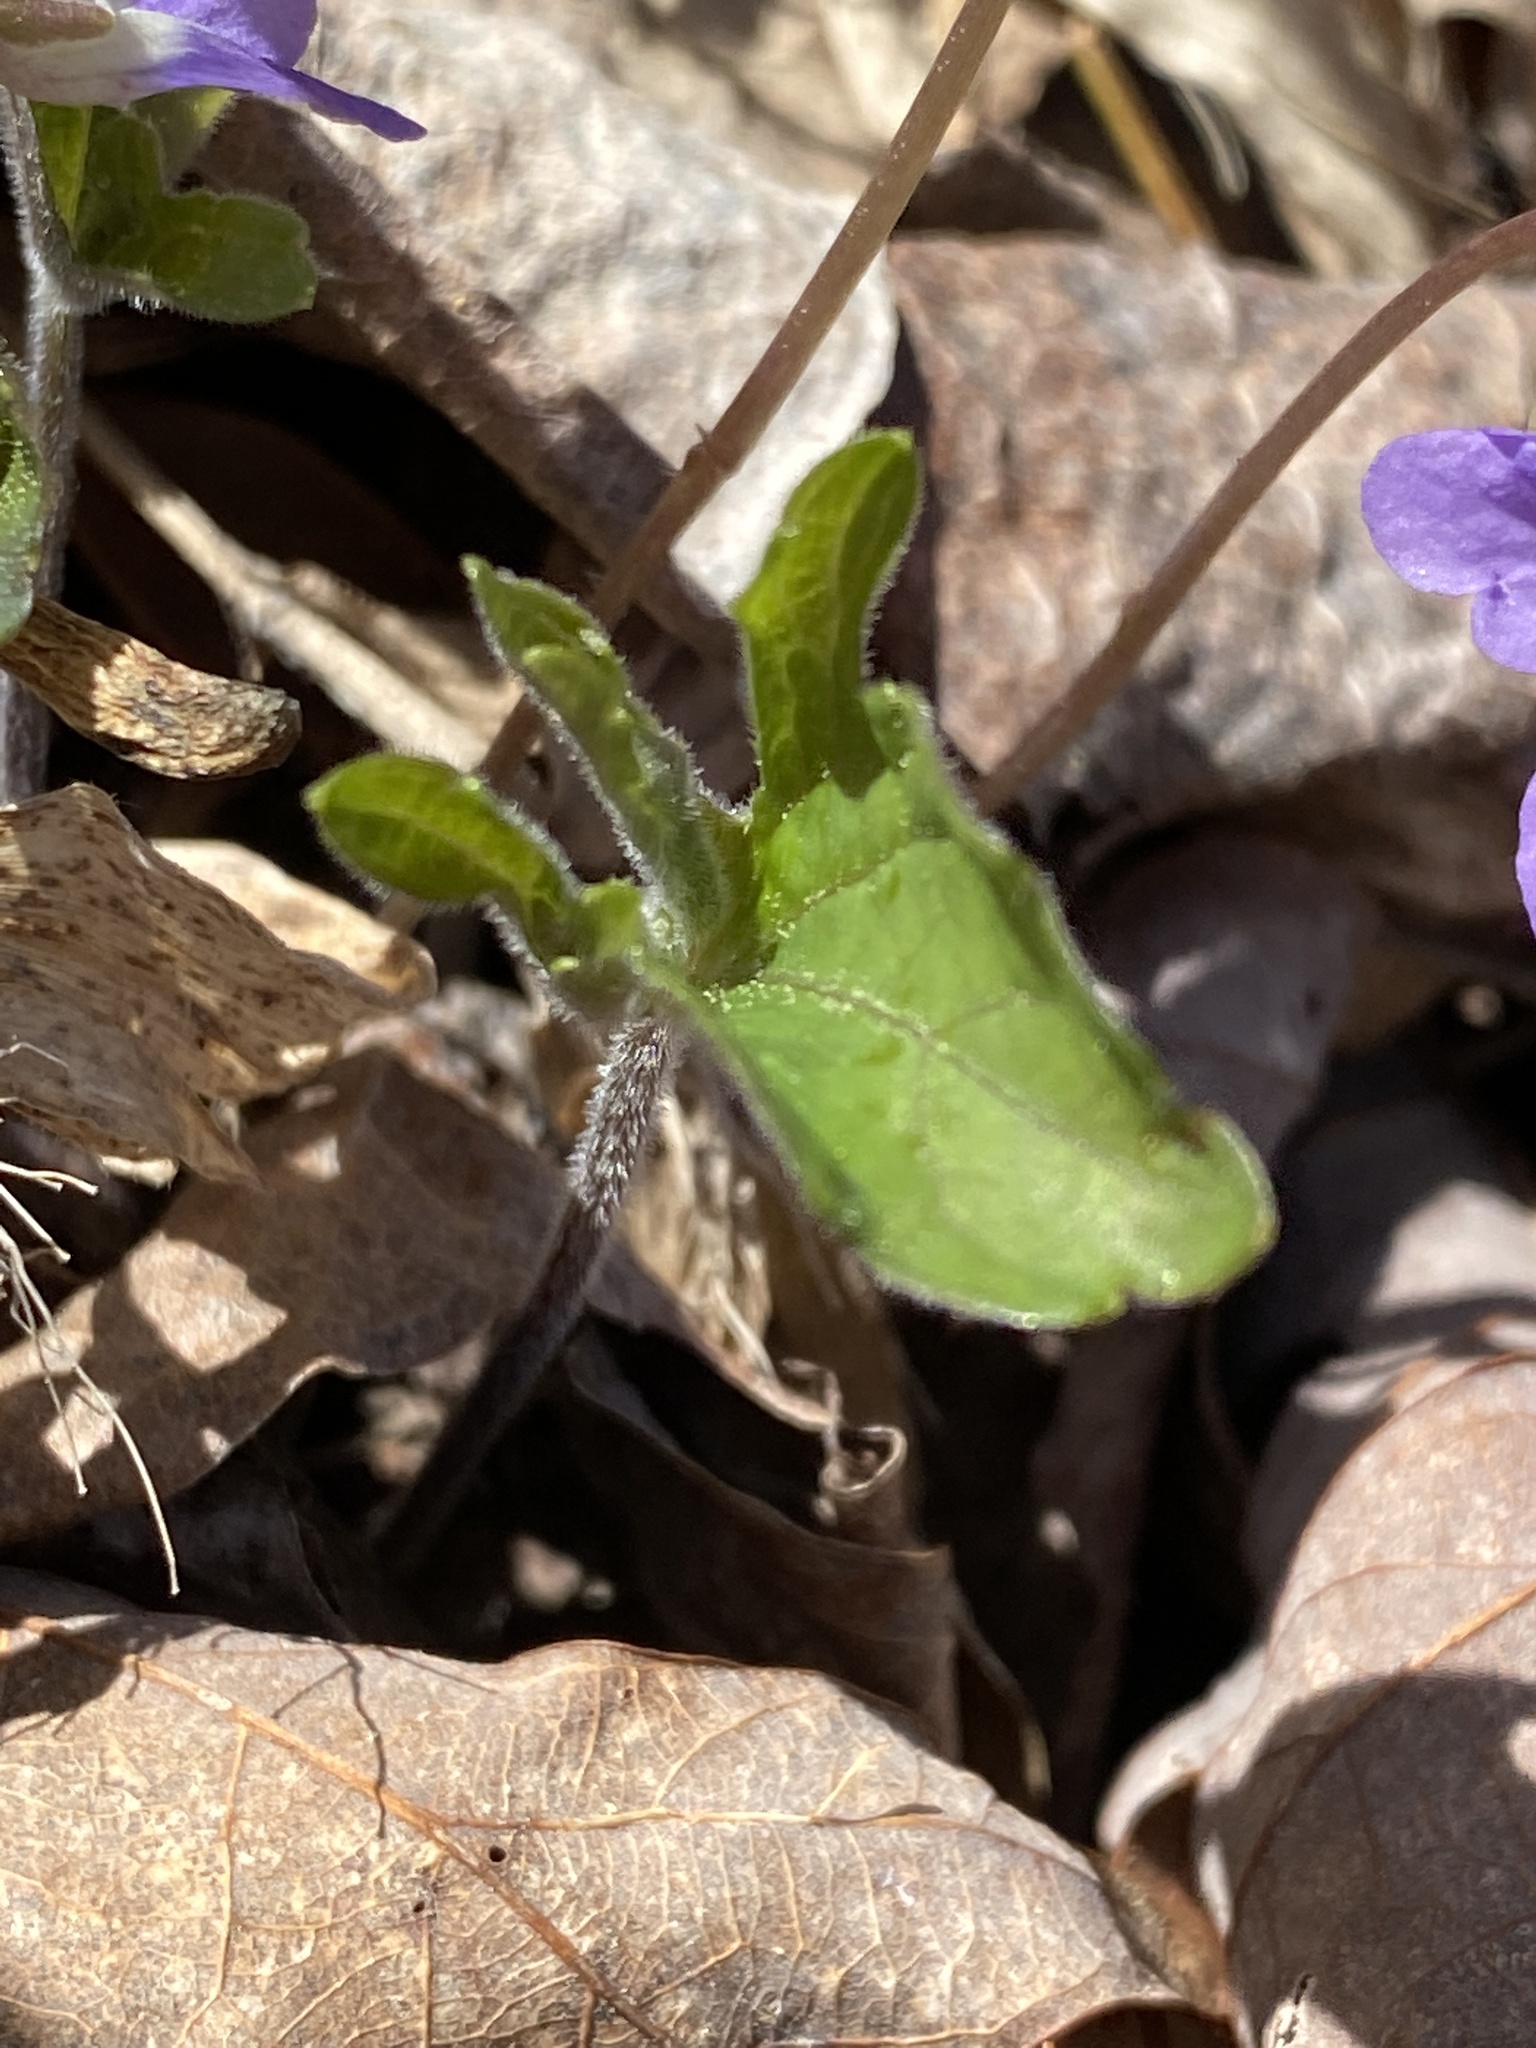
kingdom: Plantae
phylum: Tracheophyta
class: Magnoliopsida
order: Malpighiales
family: Violaceae
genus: Viola
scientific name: Viola palmata
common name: Early blue violet
